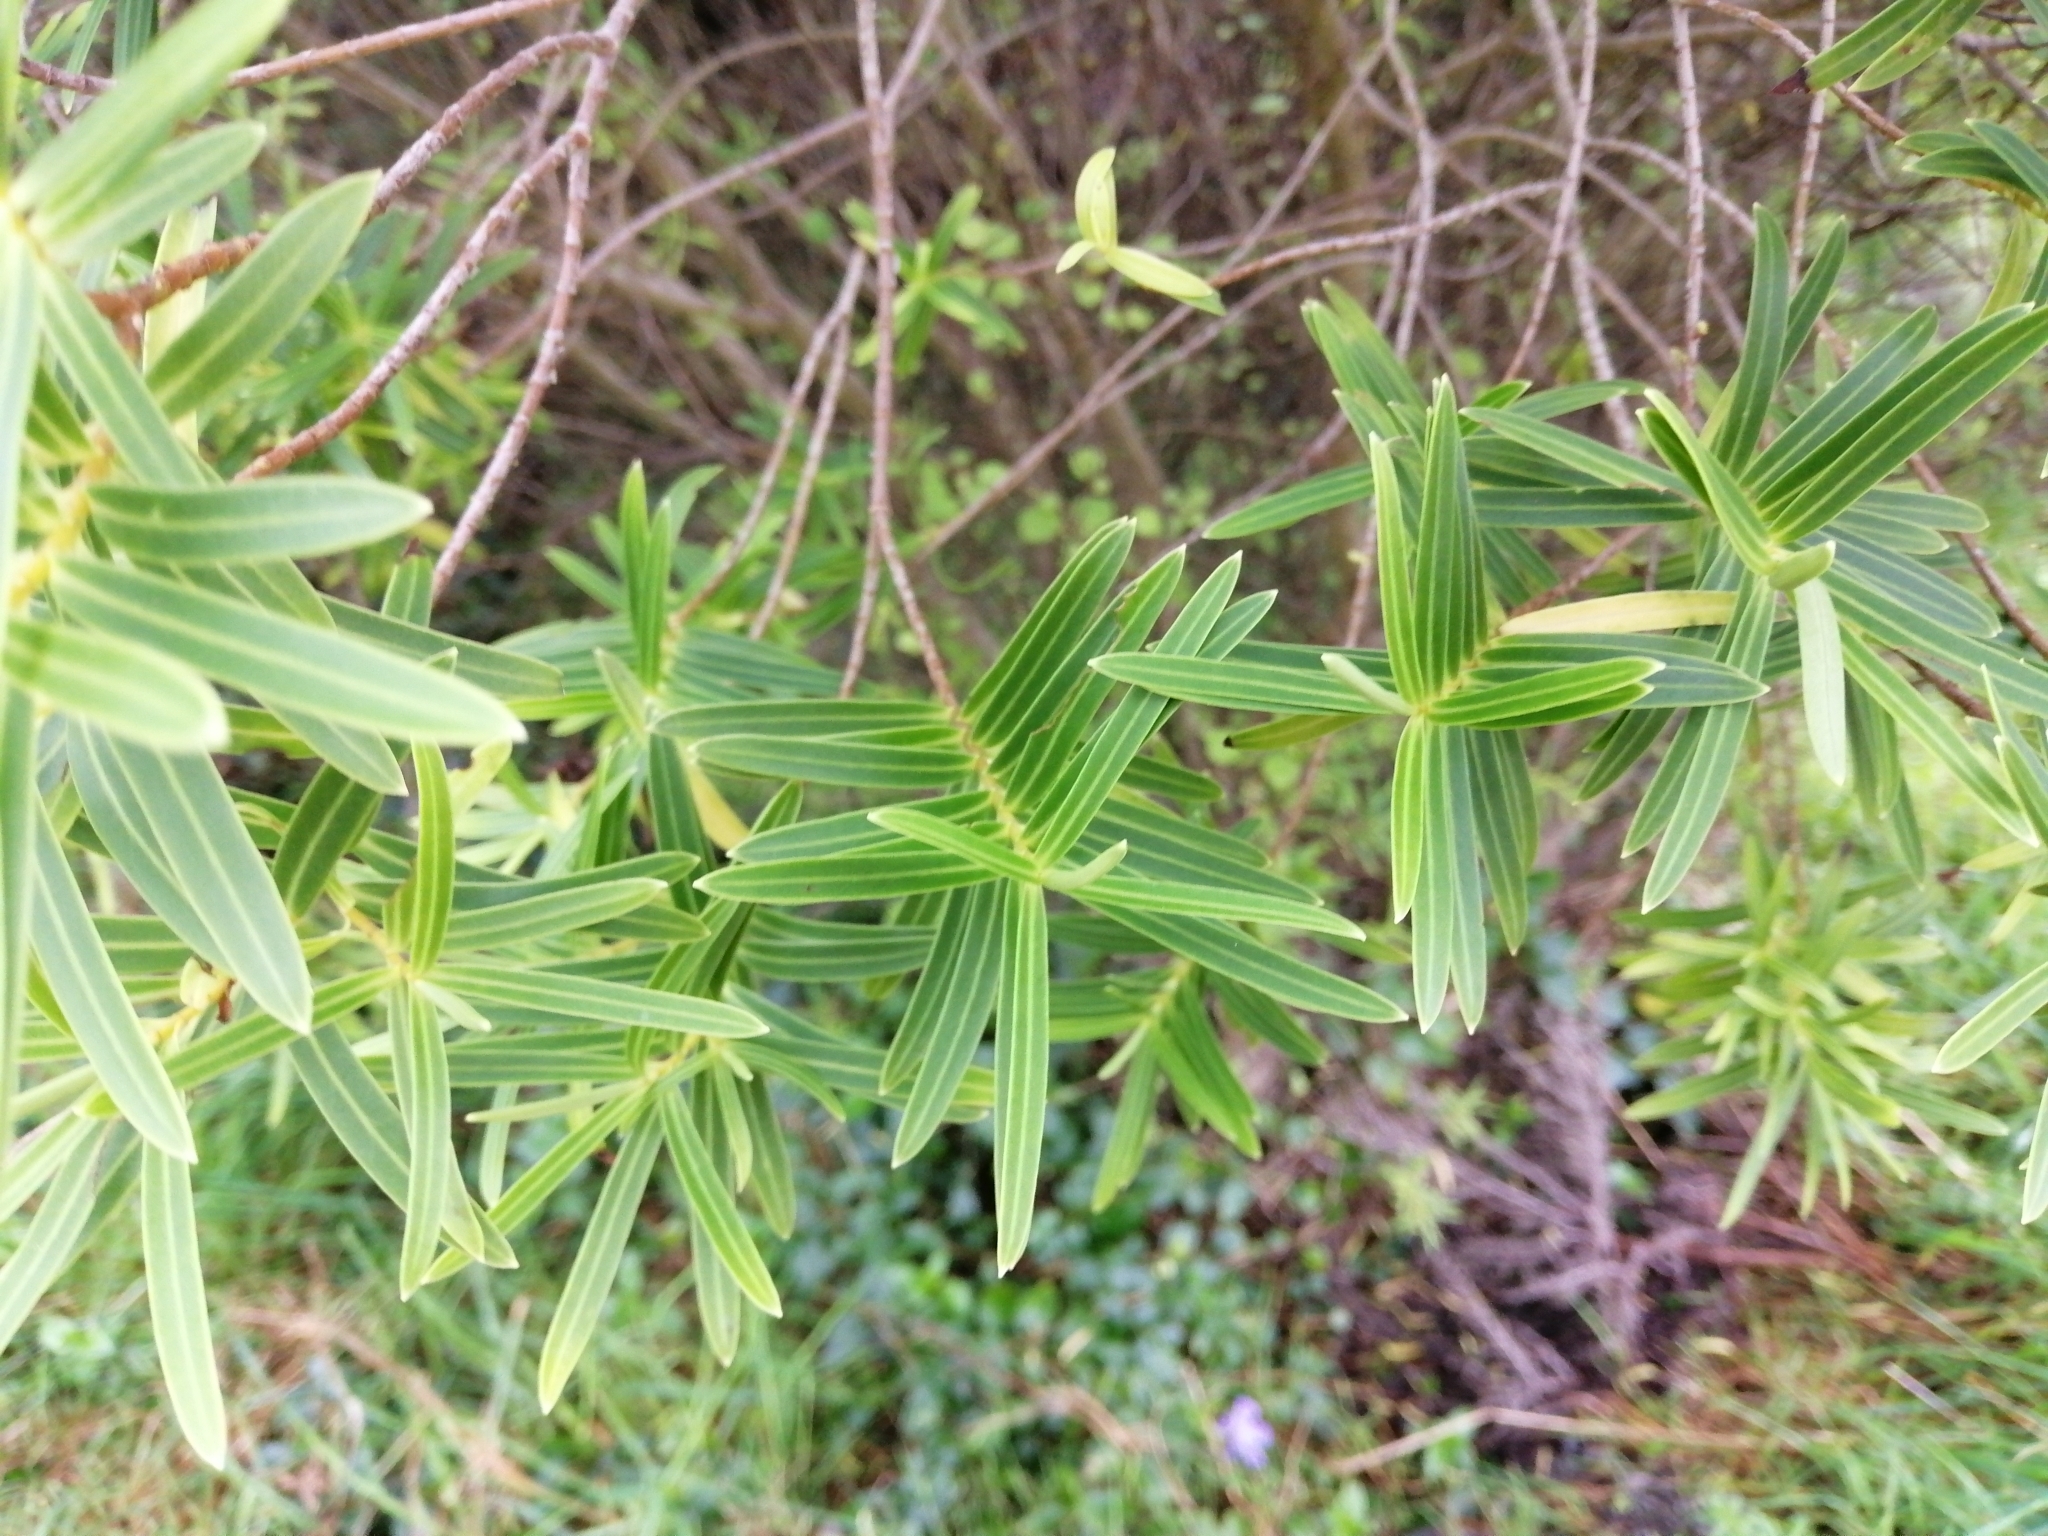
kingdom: Plantae
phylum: Tracheophyta
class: Magnoliopsida
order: Lamiales
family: Plantaginaceae
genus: Veronica
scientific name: Veronica parviflora
